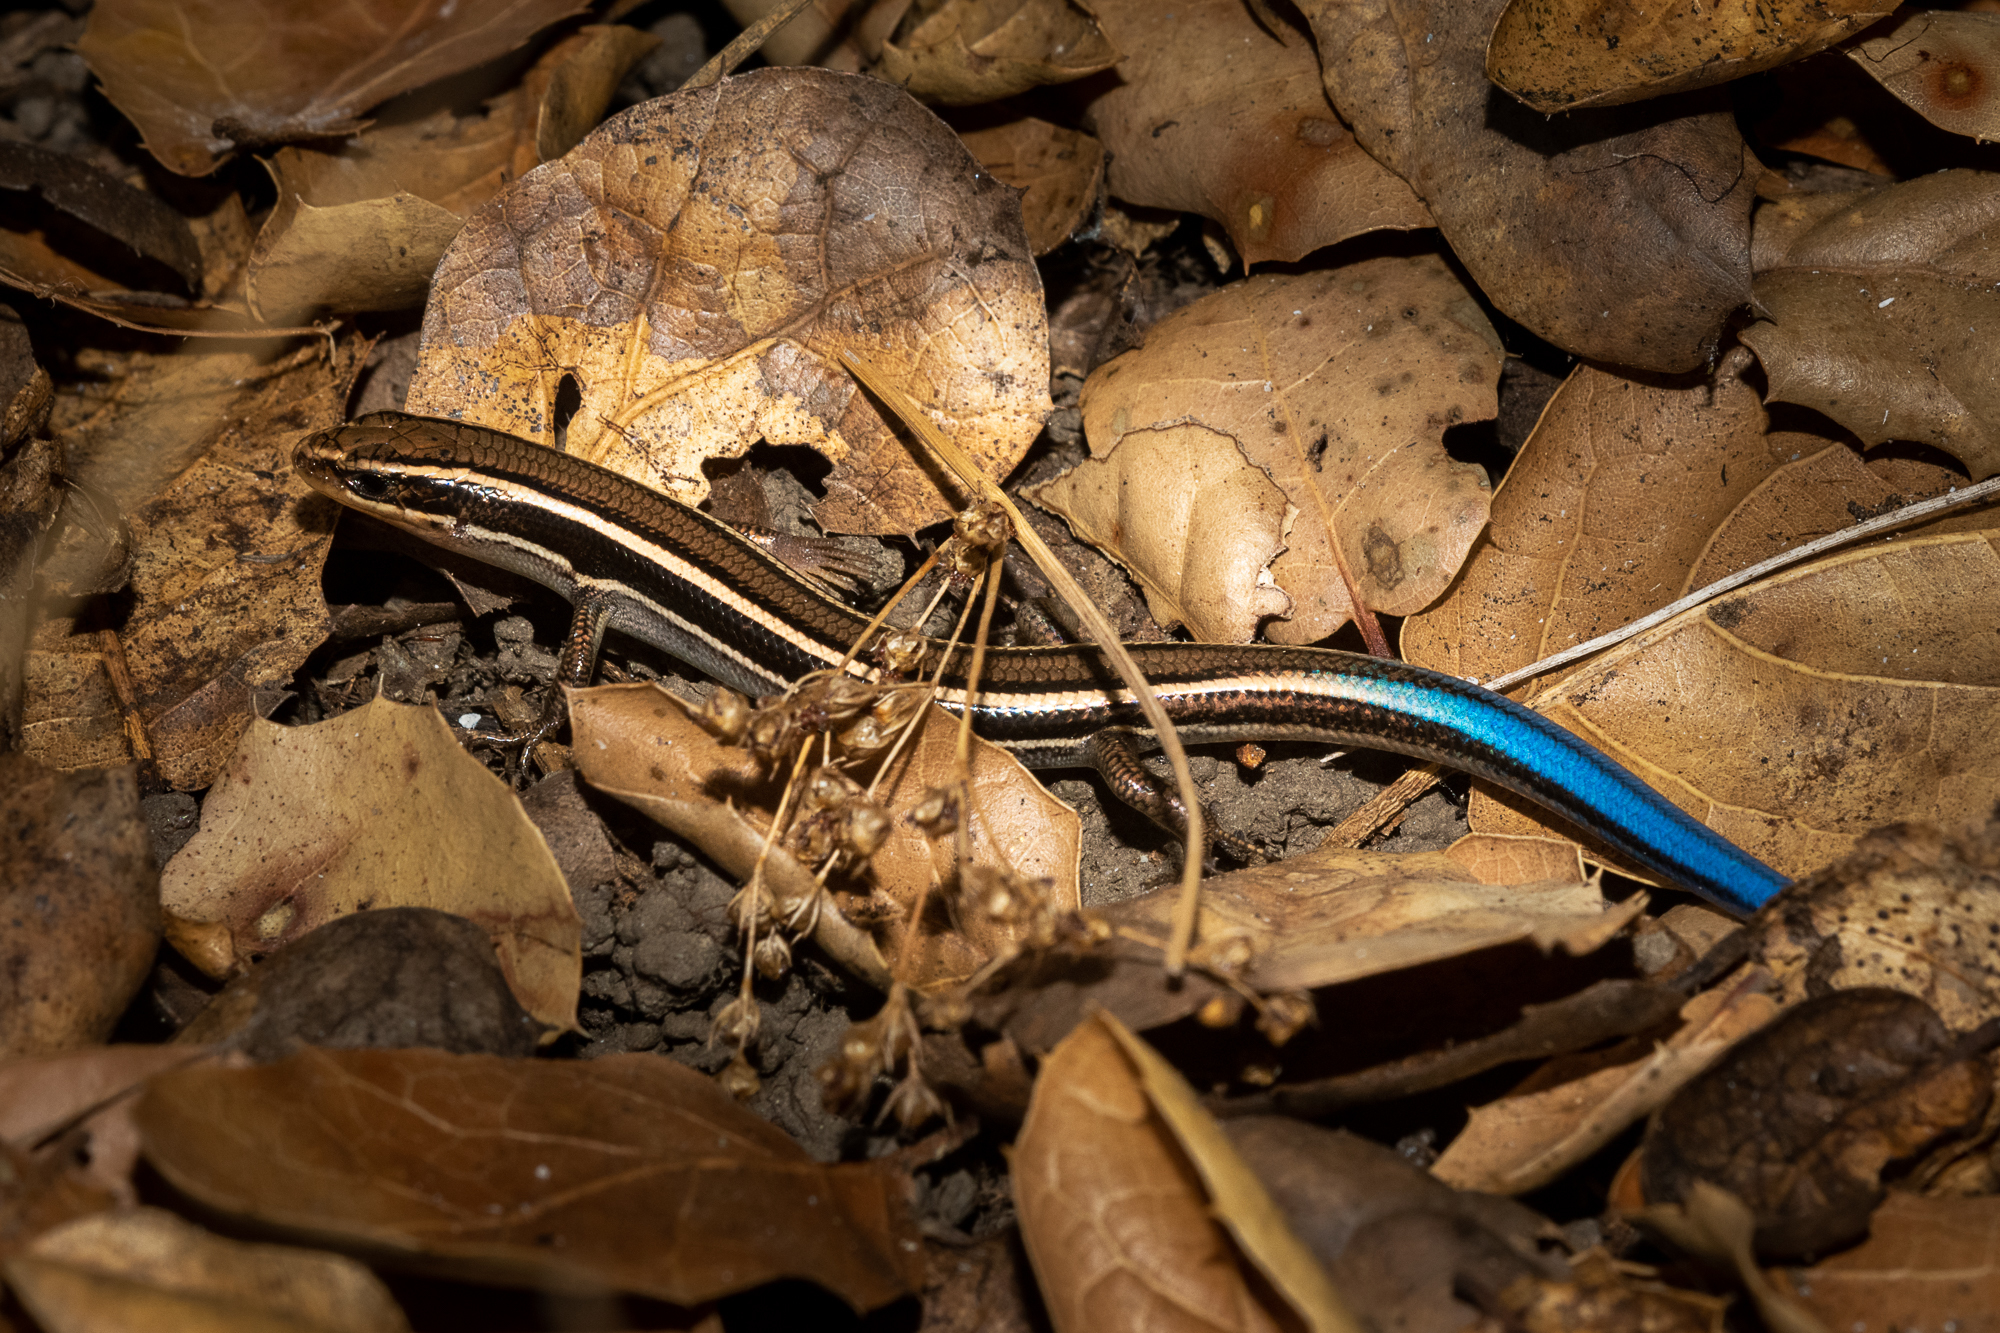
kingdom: Animalia
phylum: Chordata
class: Squamata
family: Scincidae
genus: Plestiodon
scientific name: Plestiodon skiltonianus
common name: Coronado island skink [interparietalis]
